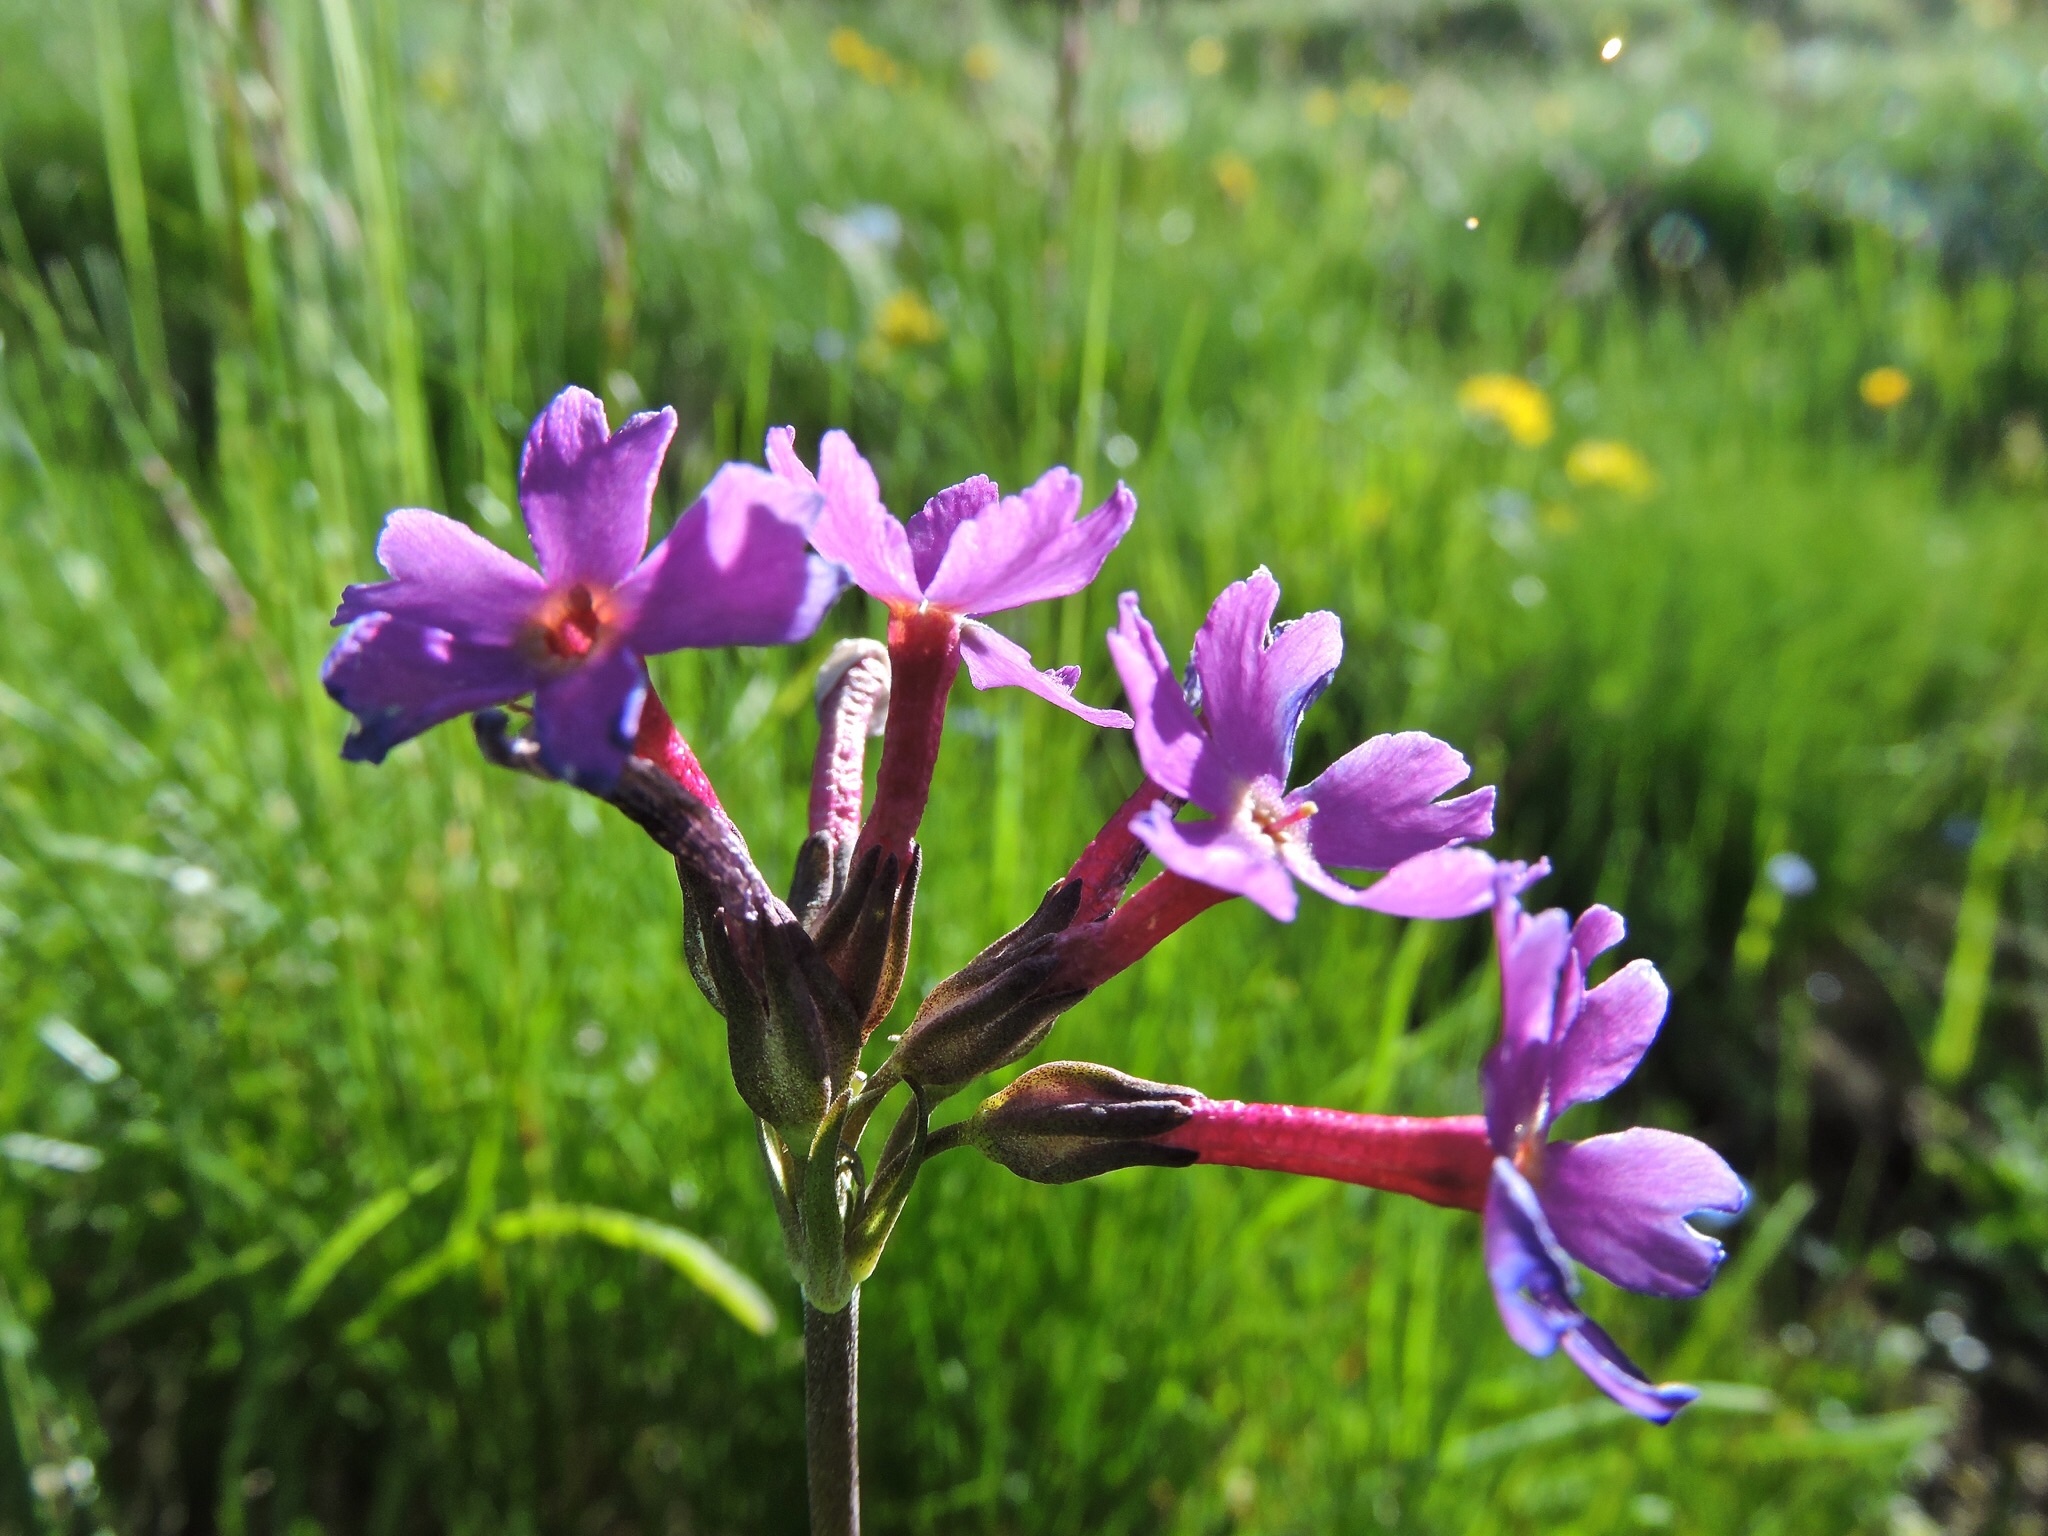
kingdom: Plantae
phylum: Tracheophyta
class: Magnoliopsida
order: Ericales
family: Primulaceae
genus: Primula
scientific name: Primula halleri
